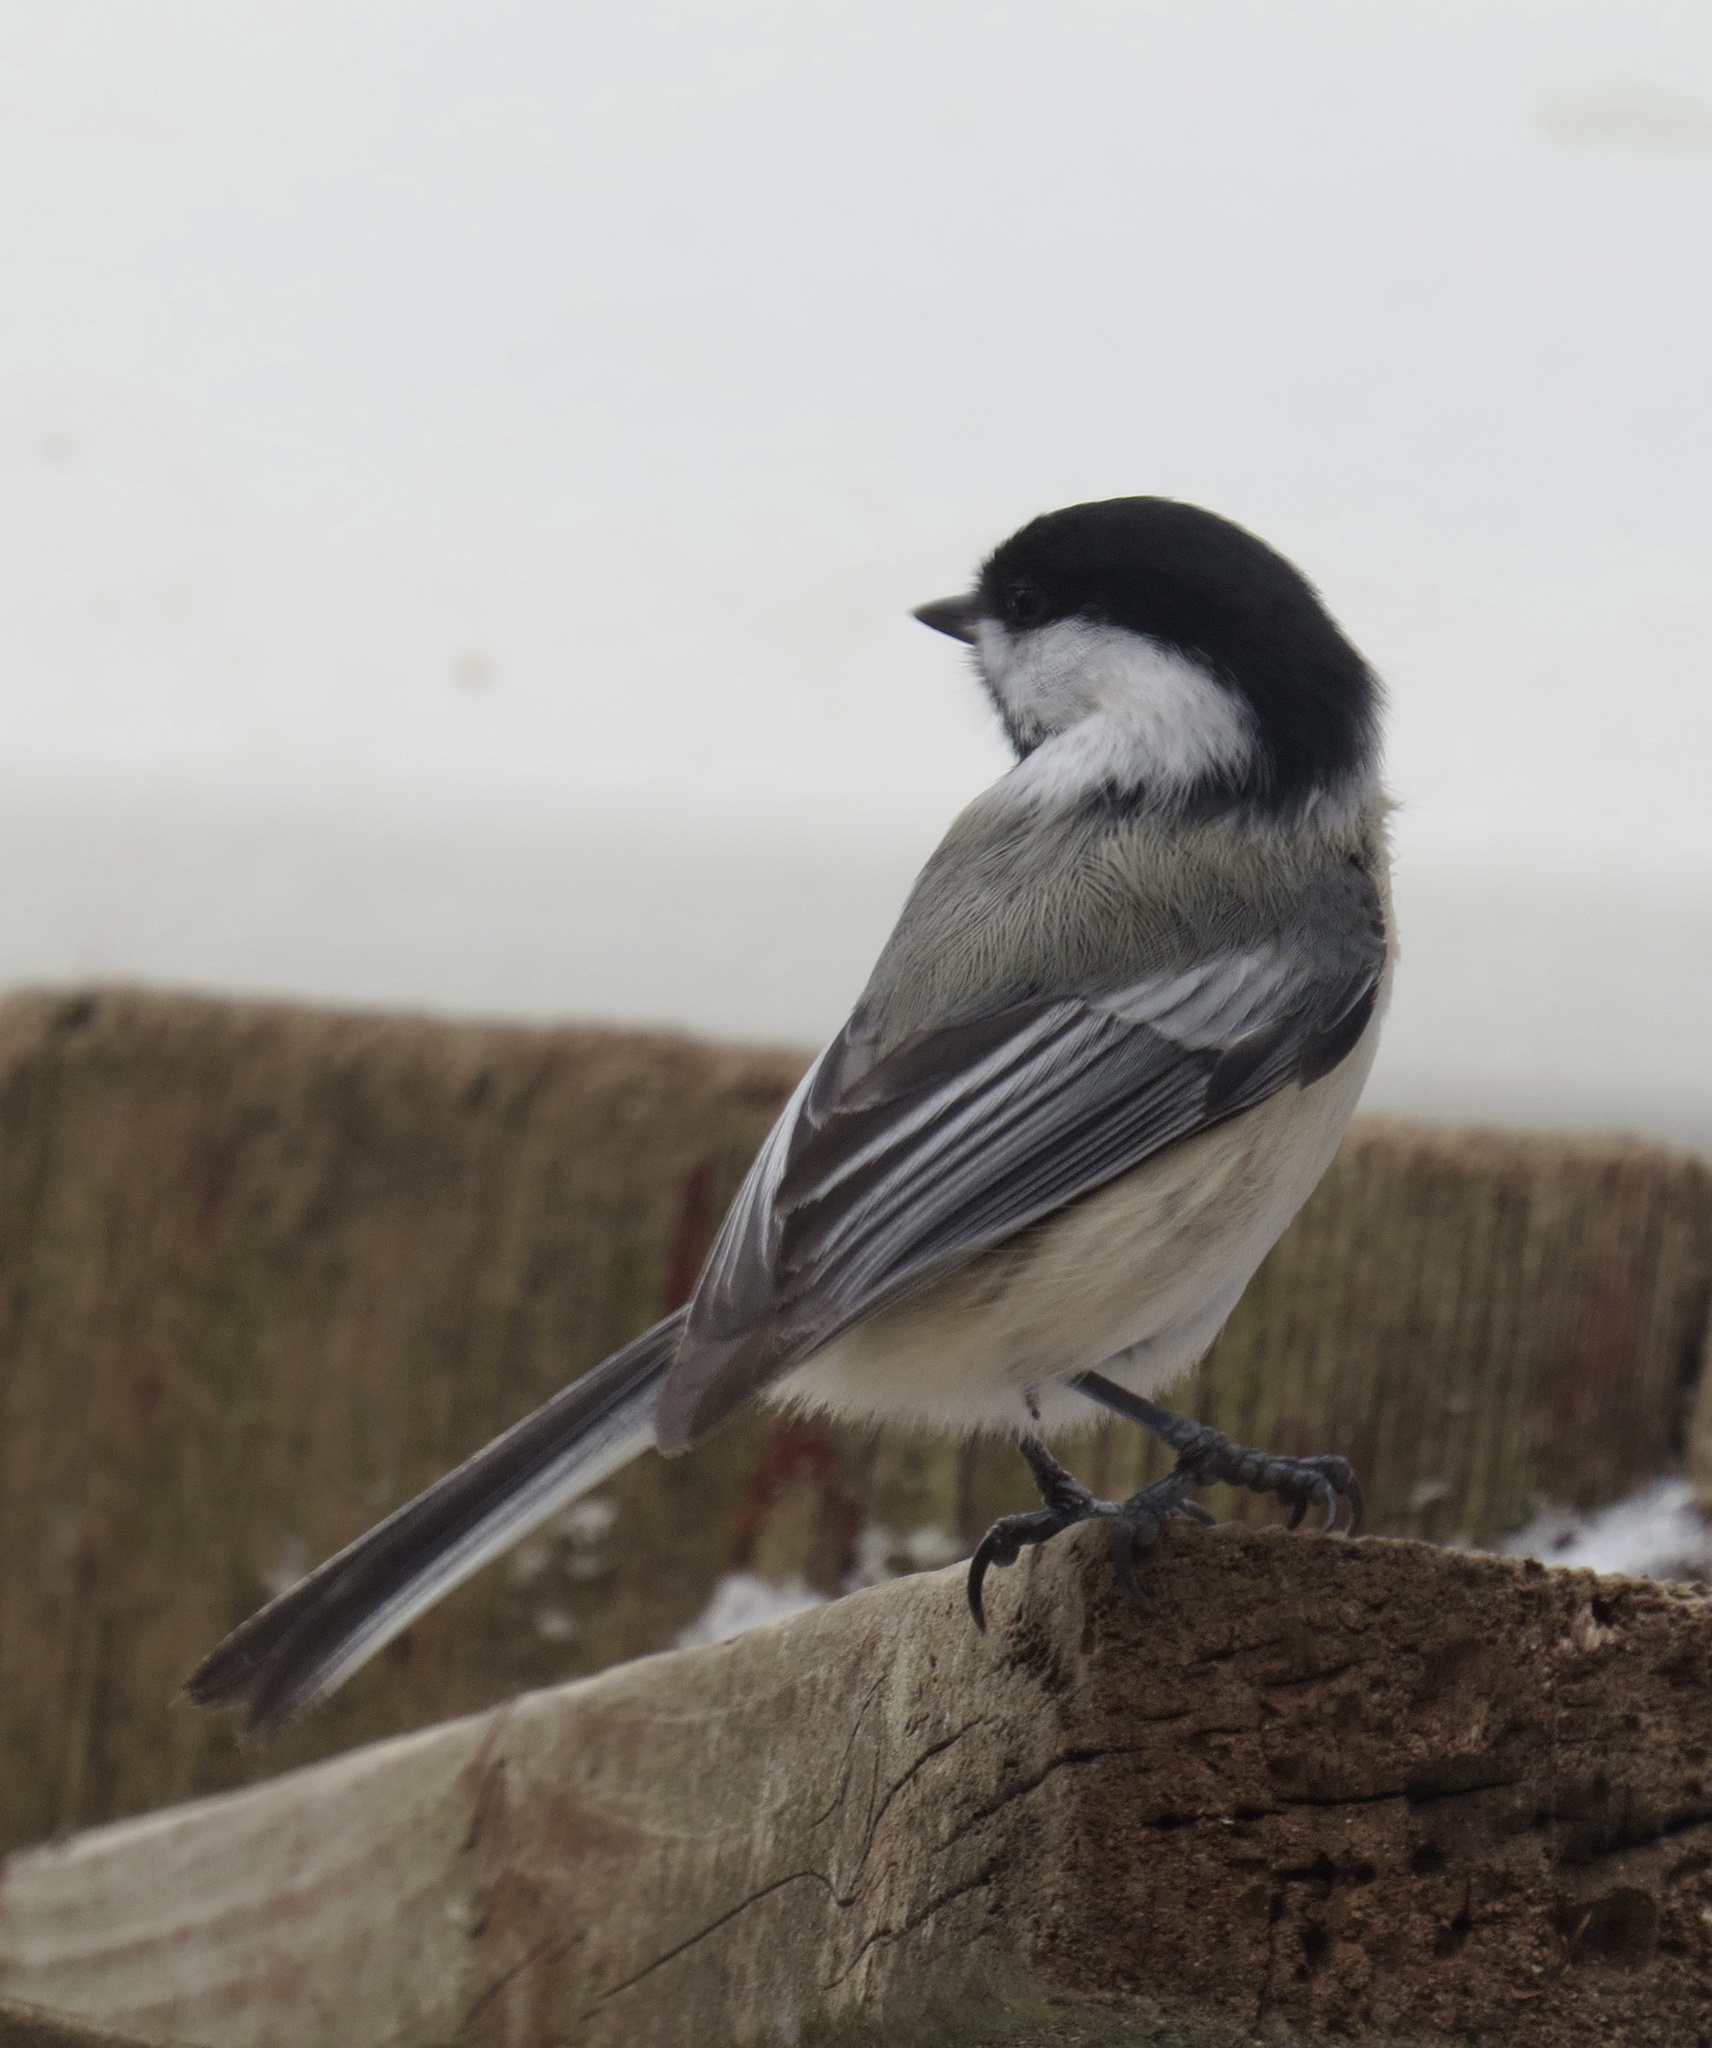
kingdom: Animalia
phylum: Chordata
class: Aves
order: Passeriformes
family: Paridae
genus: Poecile
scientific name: Poecile atricapillus
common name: Black-capped chickadee
